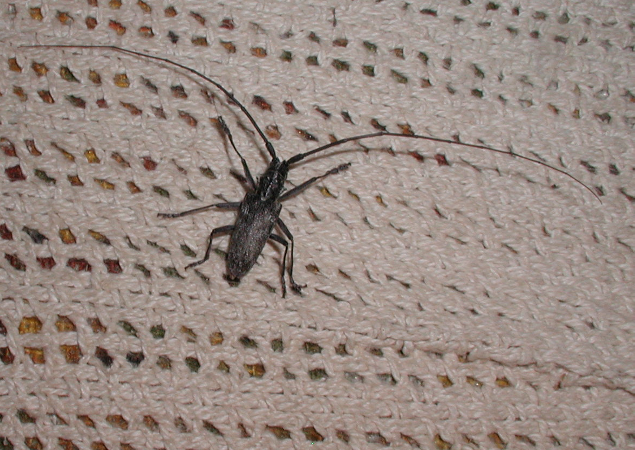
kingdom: Animalia
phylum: Arthropoda
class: Insecta
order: Coleoptera
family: Cerambycidae
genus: Monochamus
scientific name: Monochamus clamator
